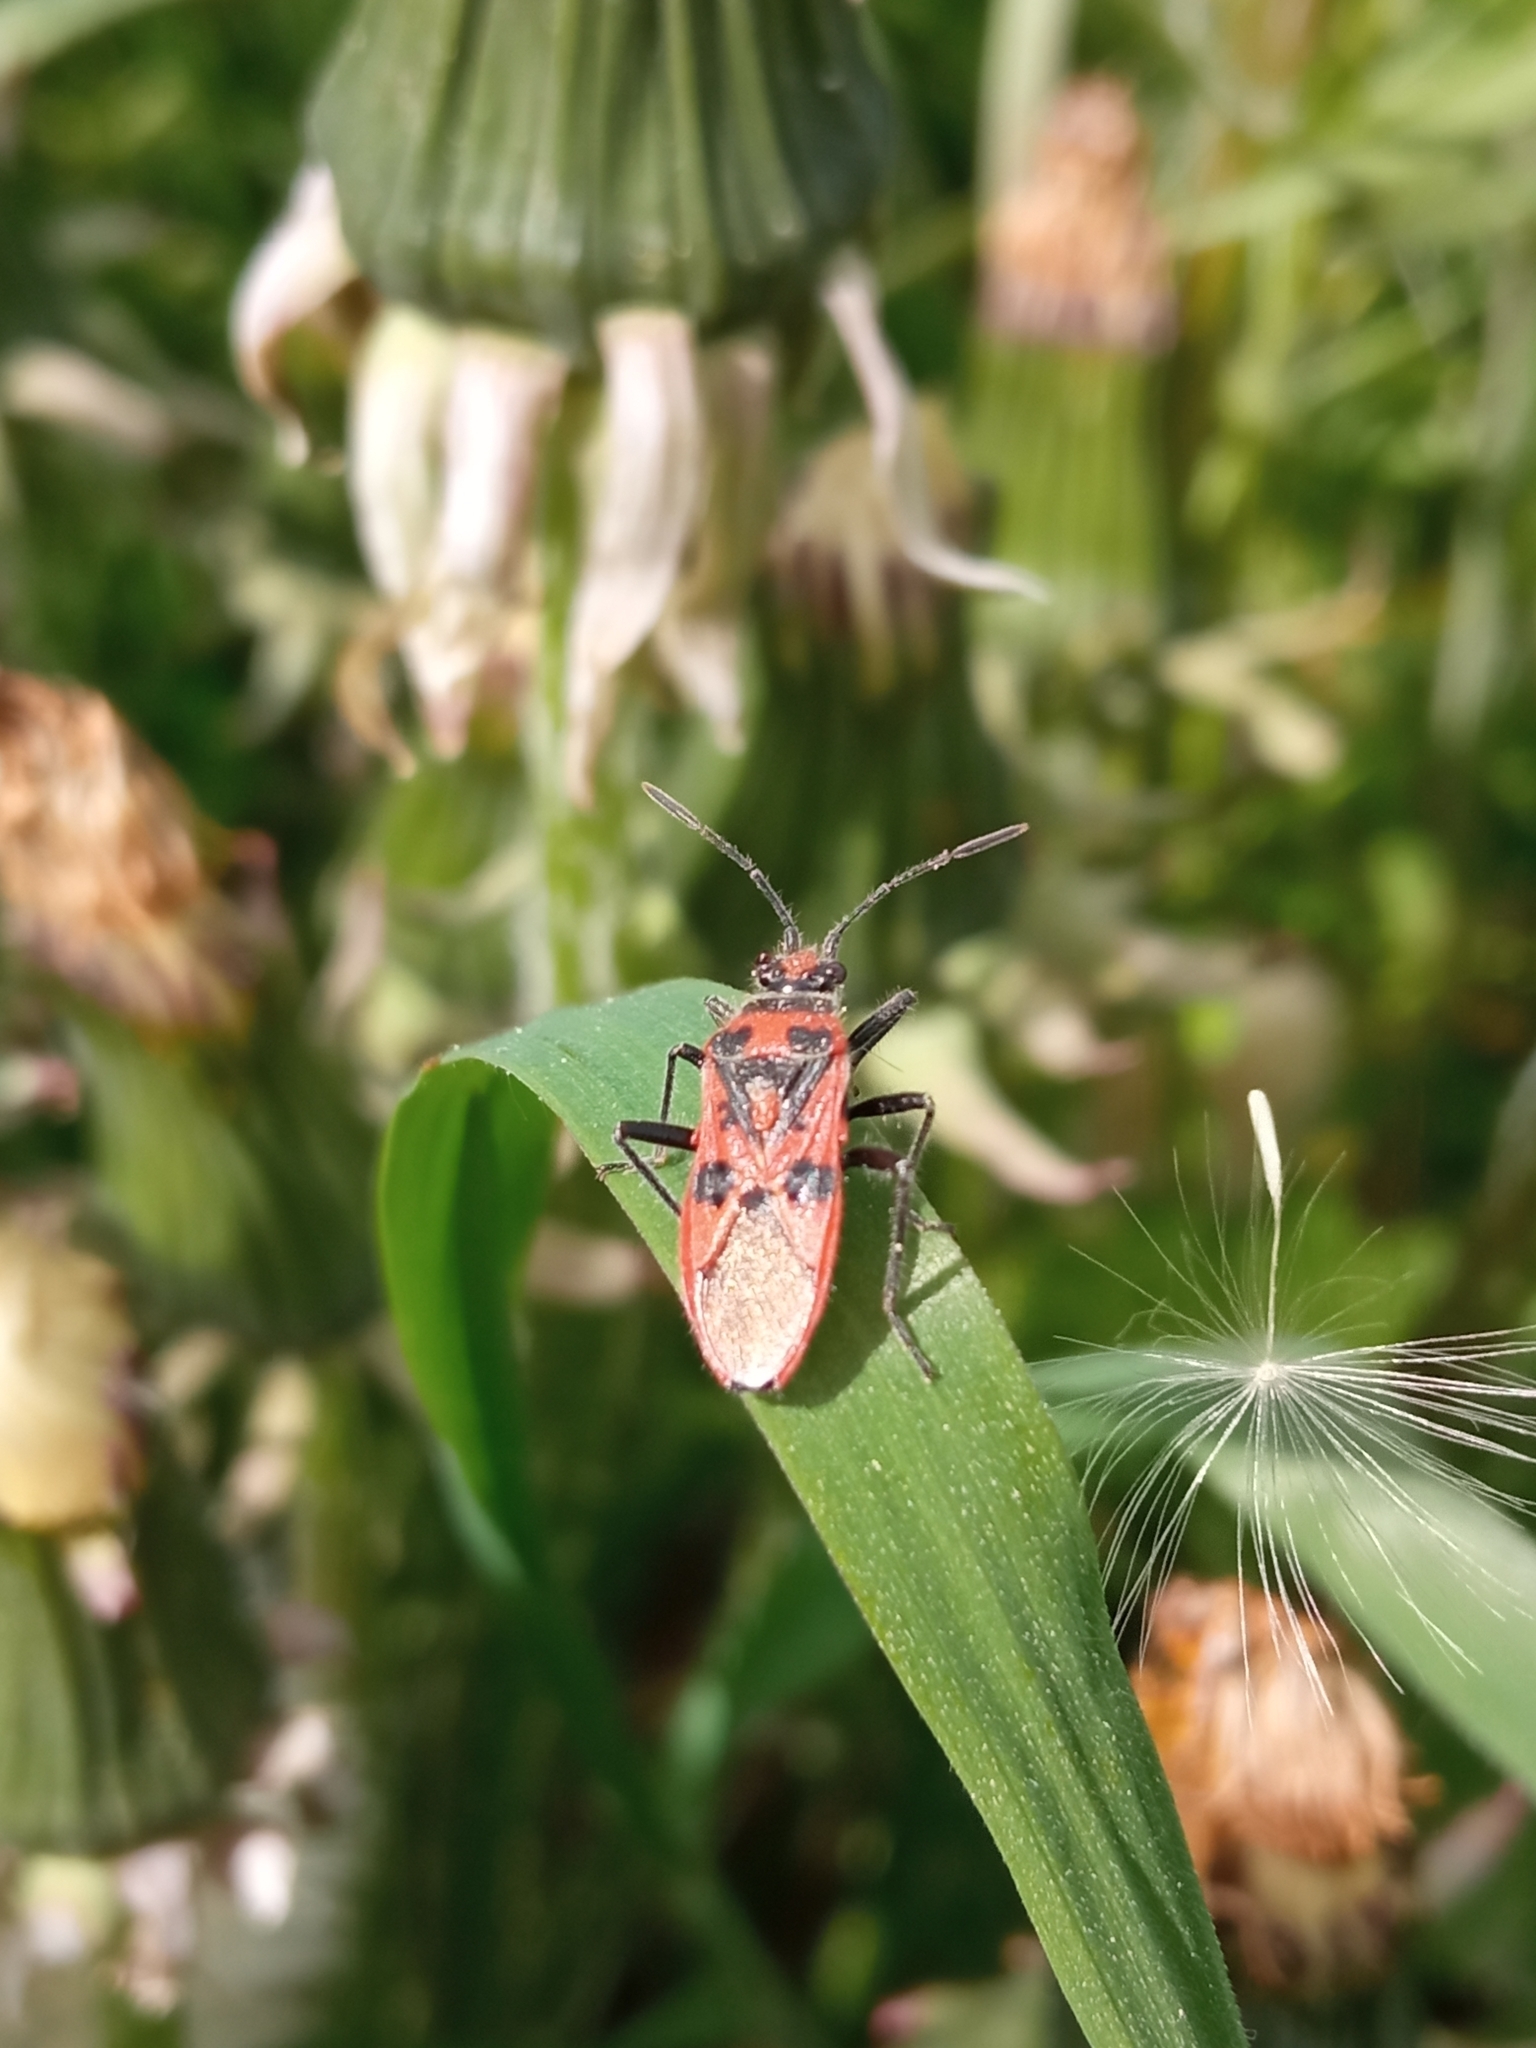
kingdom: Animalia
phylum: Arthropoda
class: Insecta
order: Hemiptera
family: Rhopalidae
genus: Corizus
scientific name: Corizus hyoscyami
